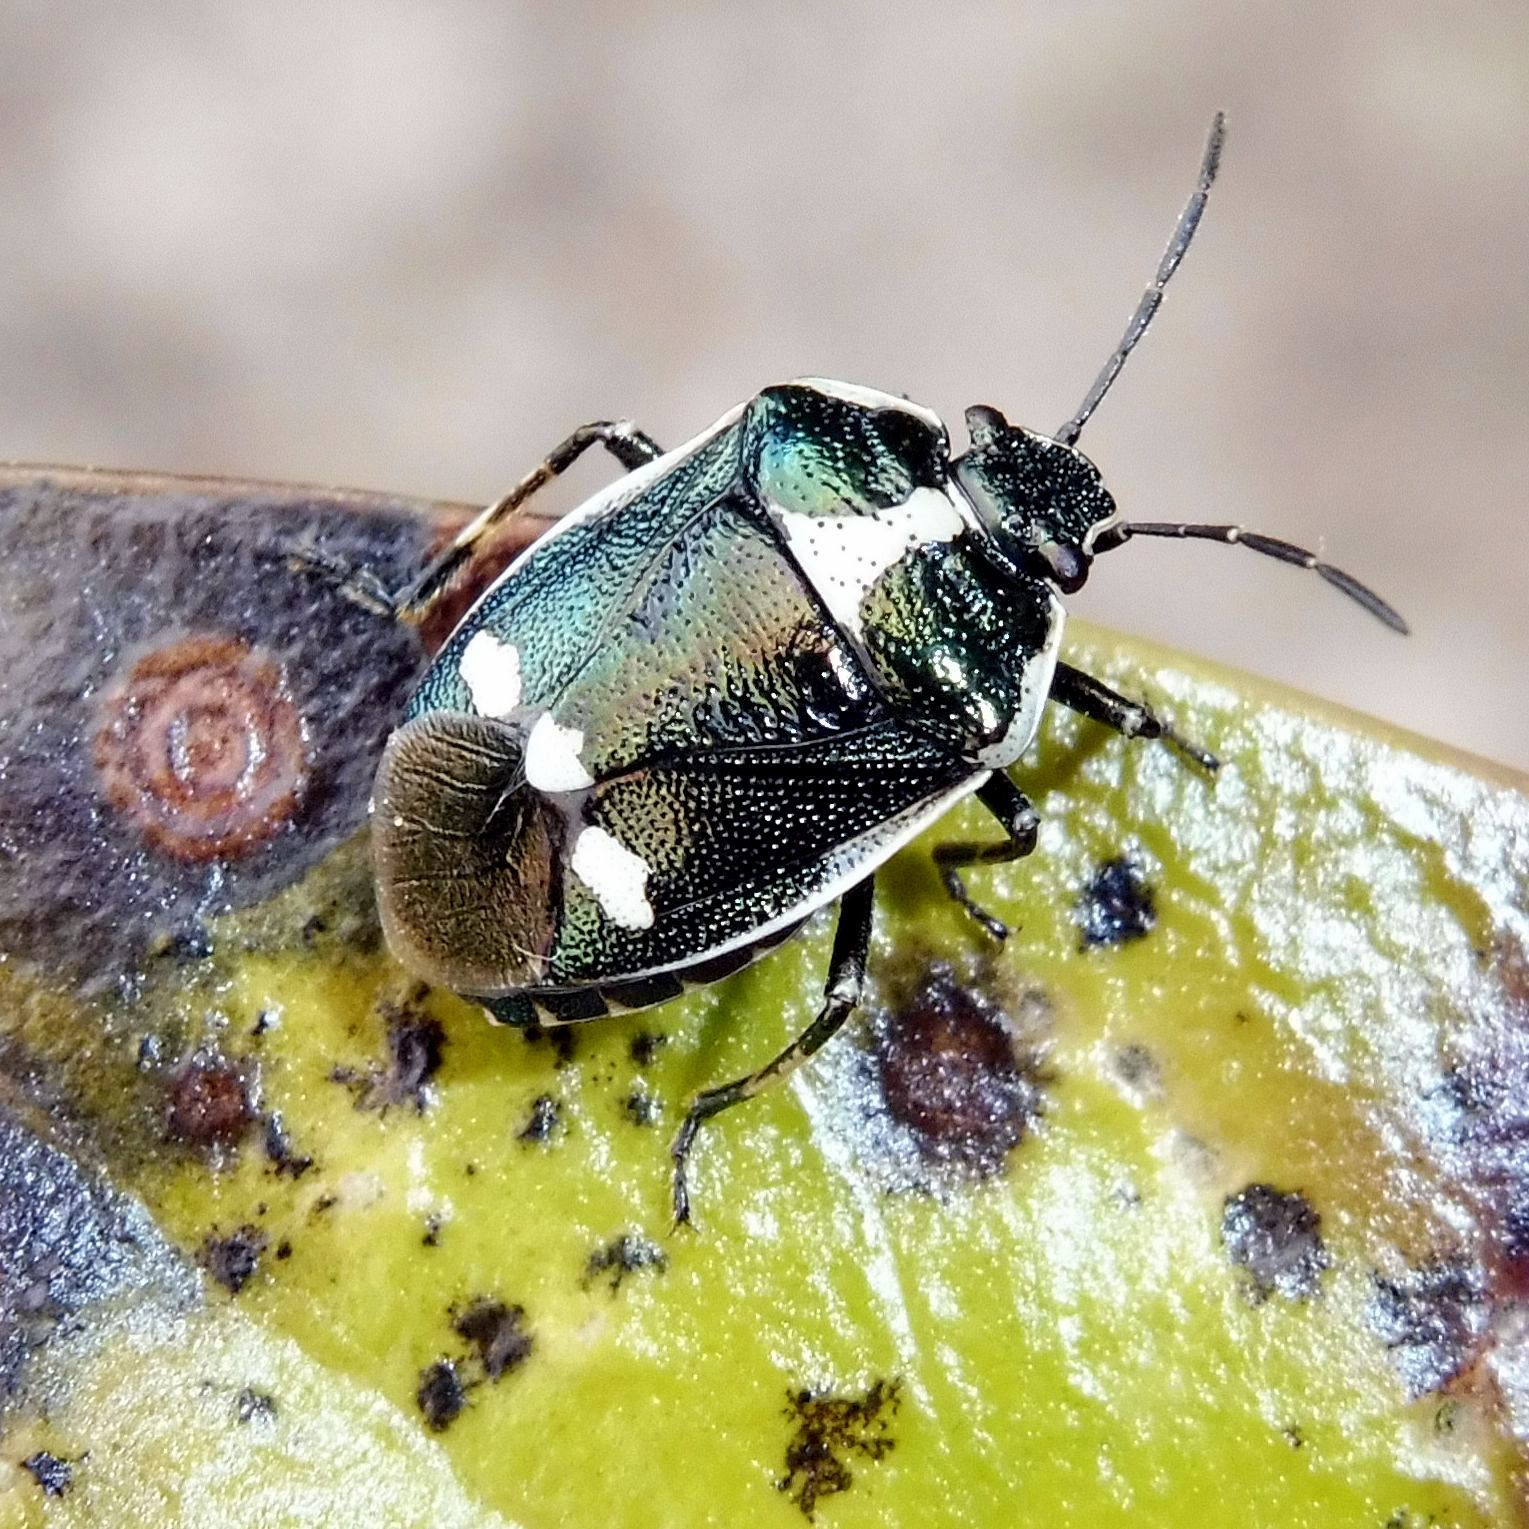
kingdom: Animalia
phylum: Arthropoda
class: Insecta
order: Hemiptera
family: Pentatomidae
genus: Eurydema
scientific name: Eurydema oleracea
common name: Cabbage bug
